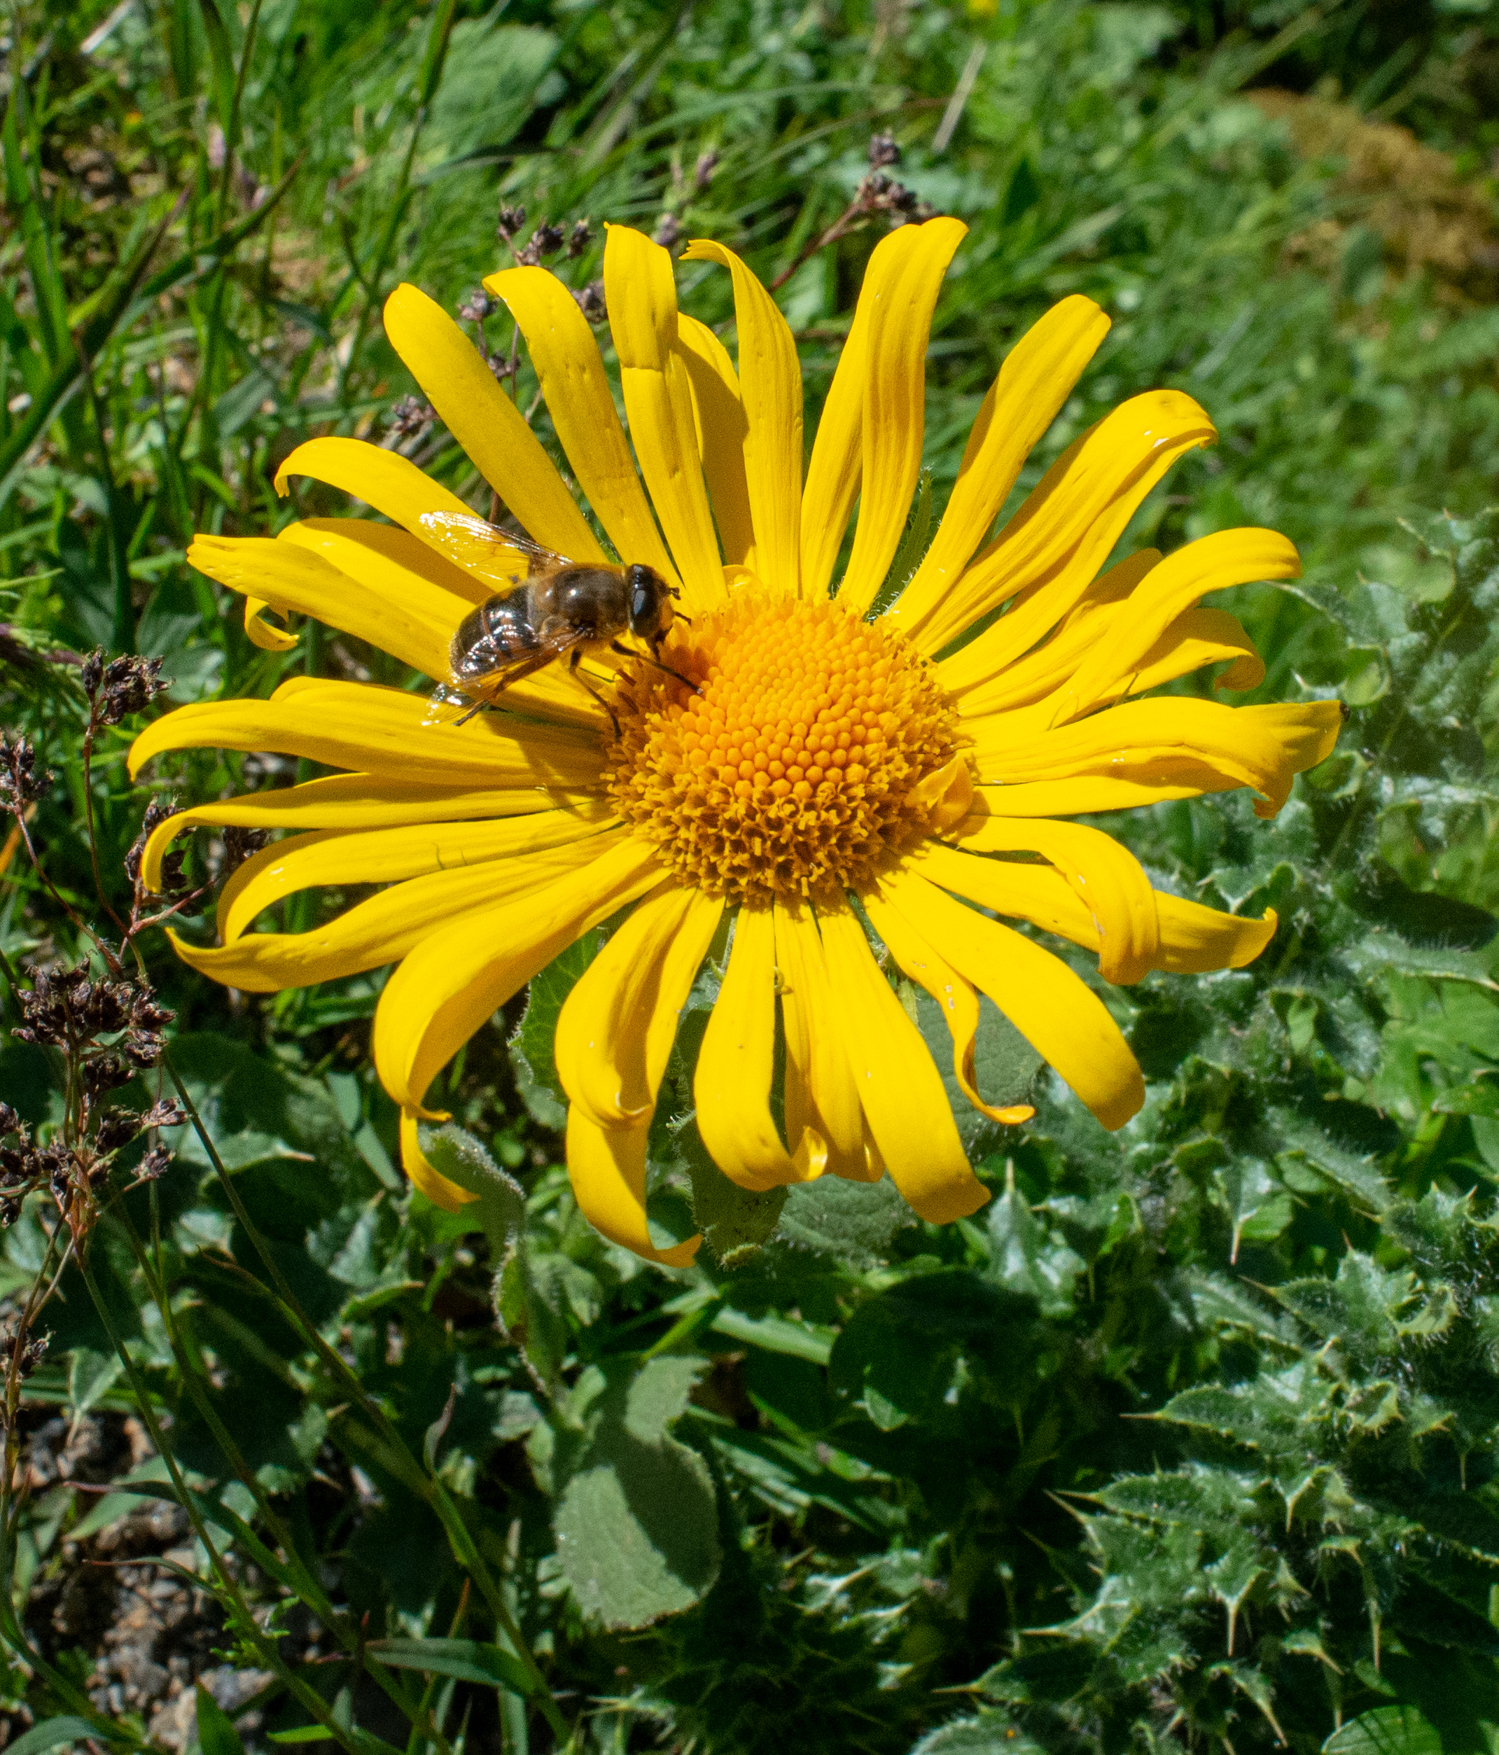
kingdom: Plantae
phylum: Tracheophyta
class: Magnoliopsida
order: Asterales
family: Asteraceae
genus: Doronicum
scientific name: Doronicum grandiflorum
